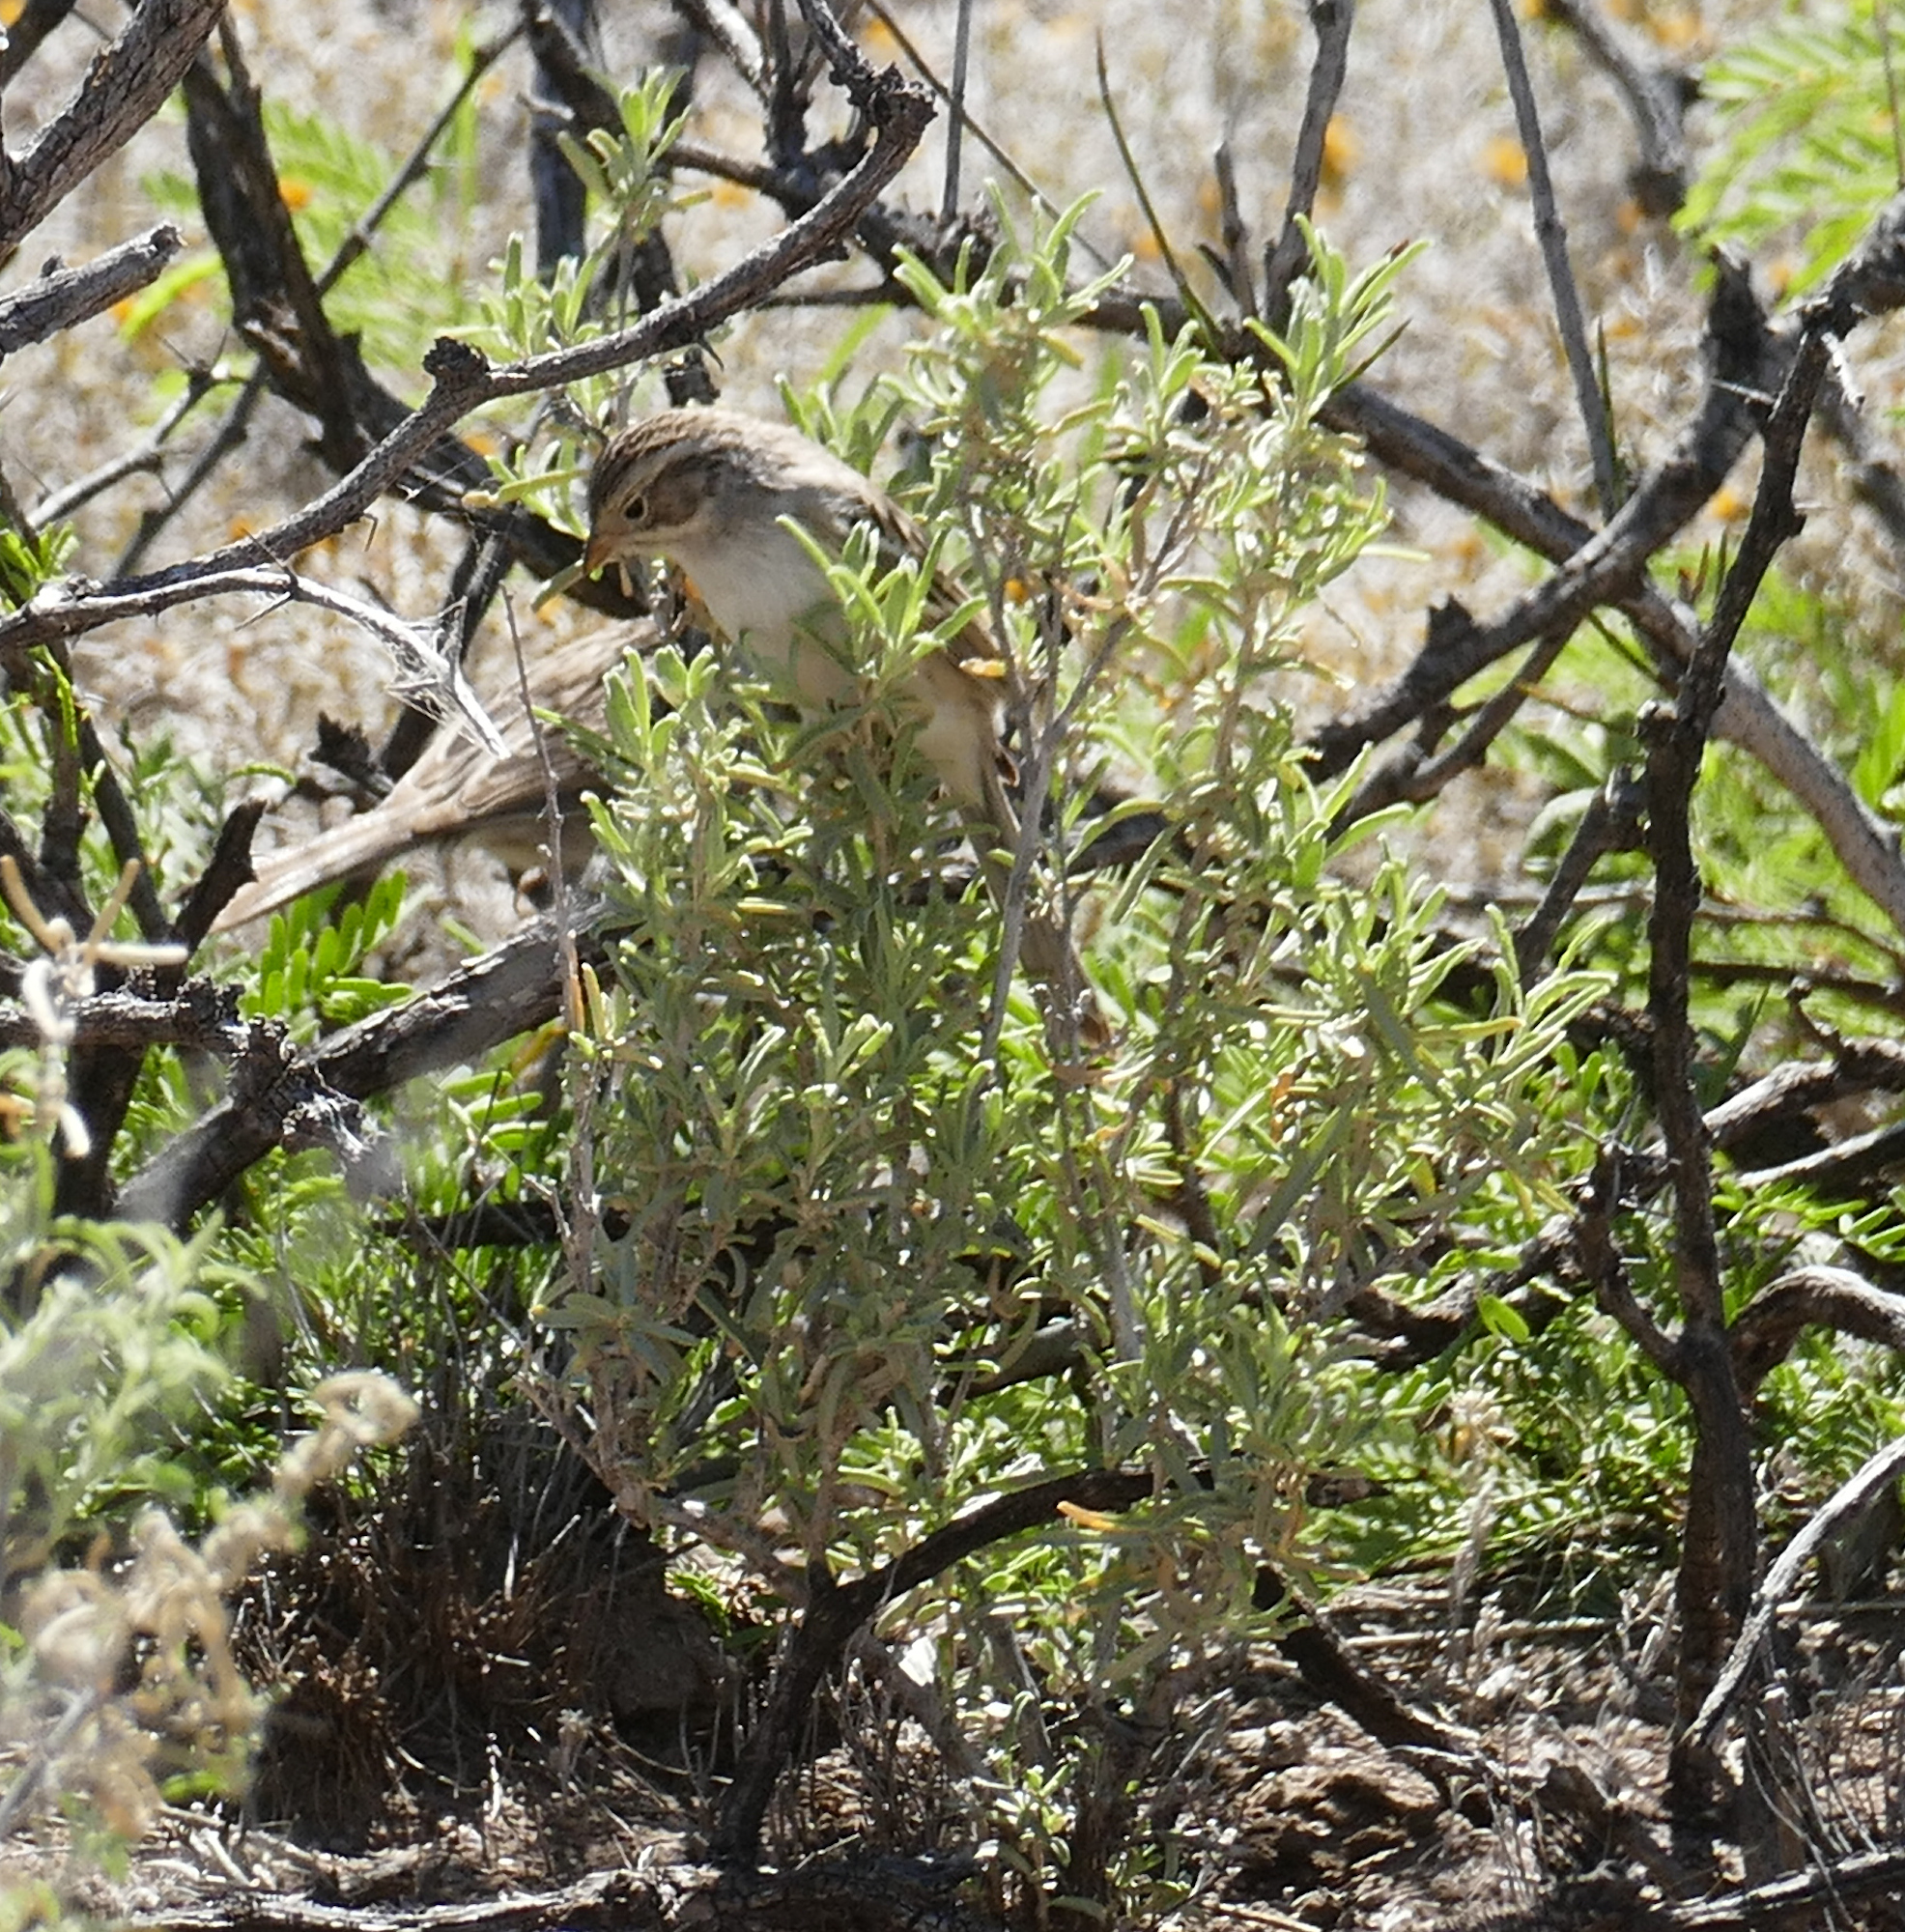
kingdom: Animalia
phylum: Chordata
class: Aves
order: Passeriformes
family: Passerellidae
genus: Spizella
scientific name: Spizella breweri
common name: Brewer's sparrow
